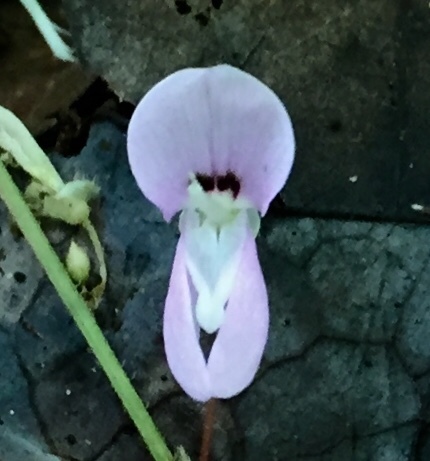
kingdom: Plantae
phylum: Tracheophyta
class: Magnoliopsida
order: Fabales
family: Fabaceae
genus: Hylodesmum
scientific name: Hylodesmum nudiflorum
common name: Bare-stemmed tick-trefoil
